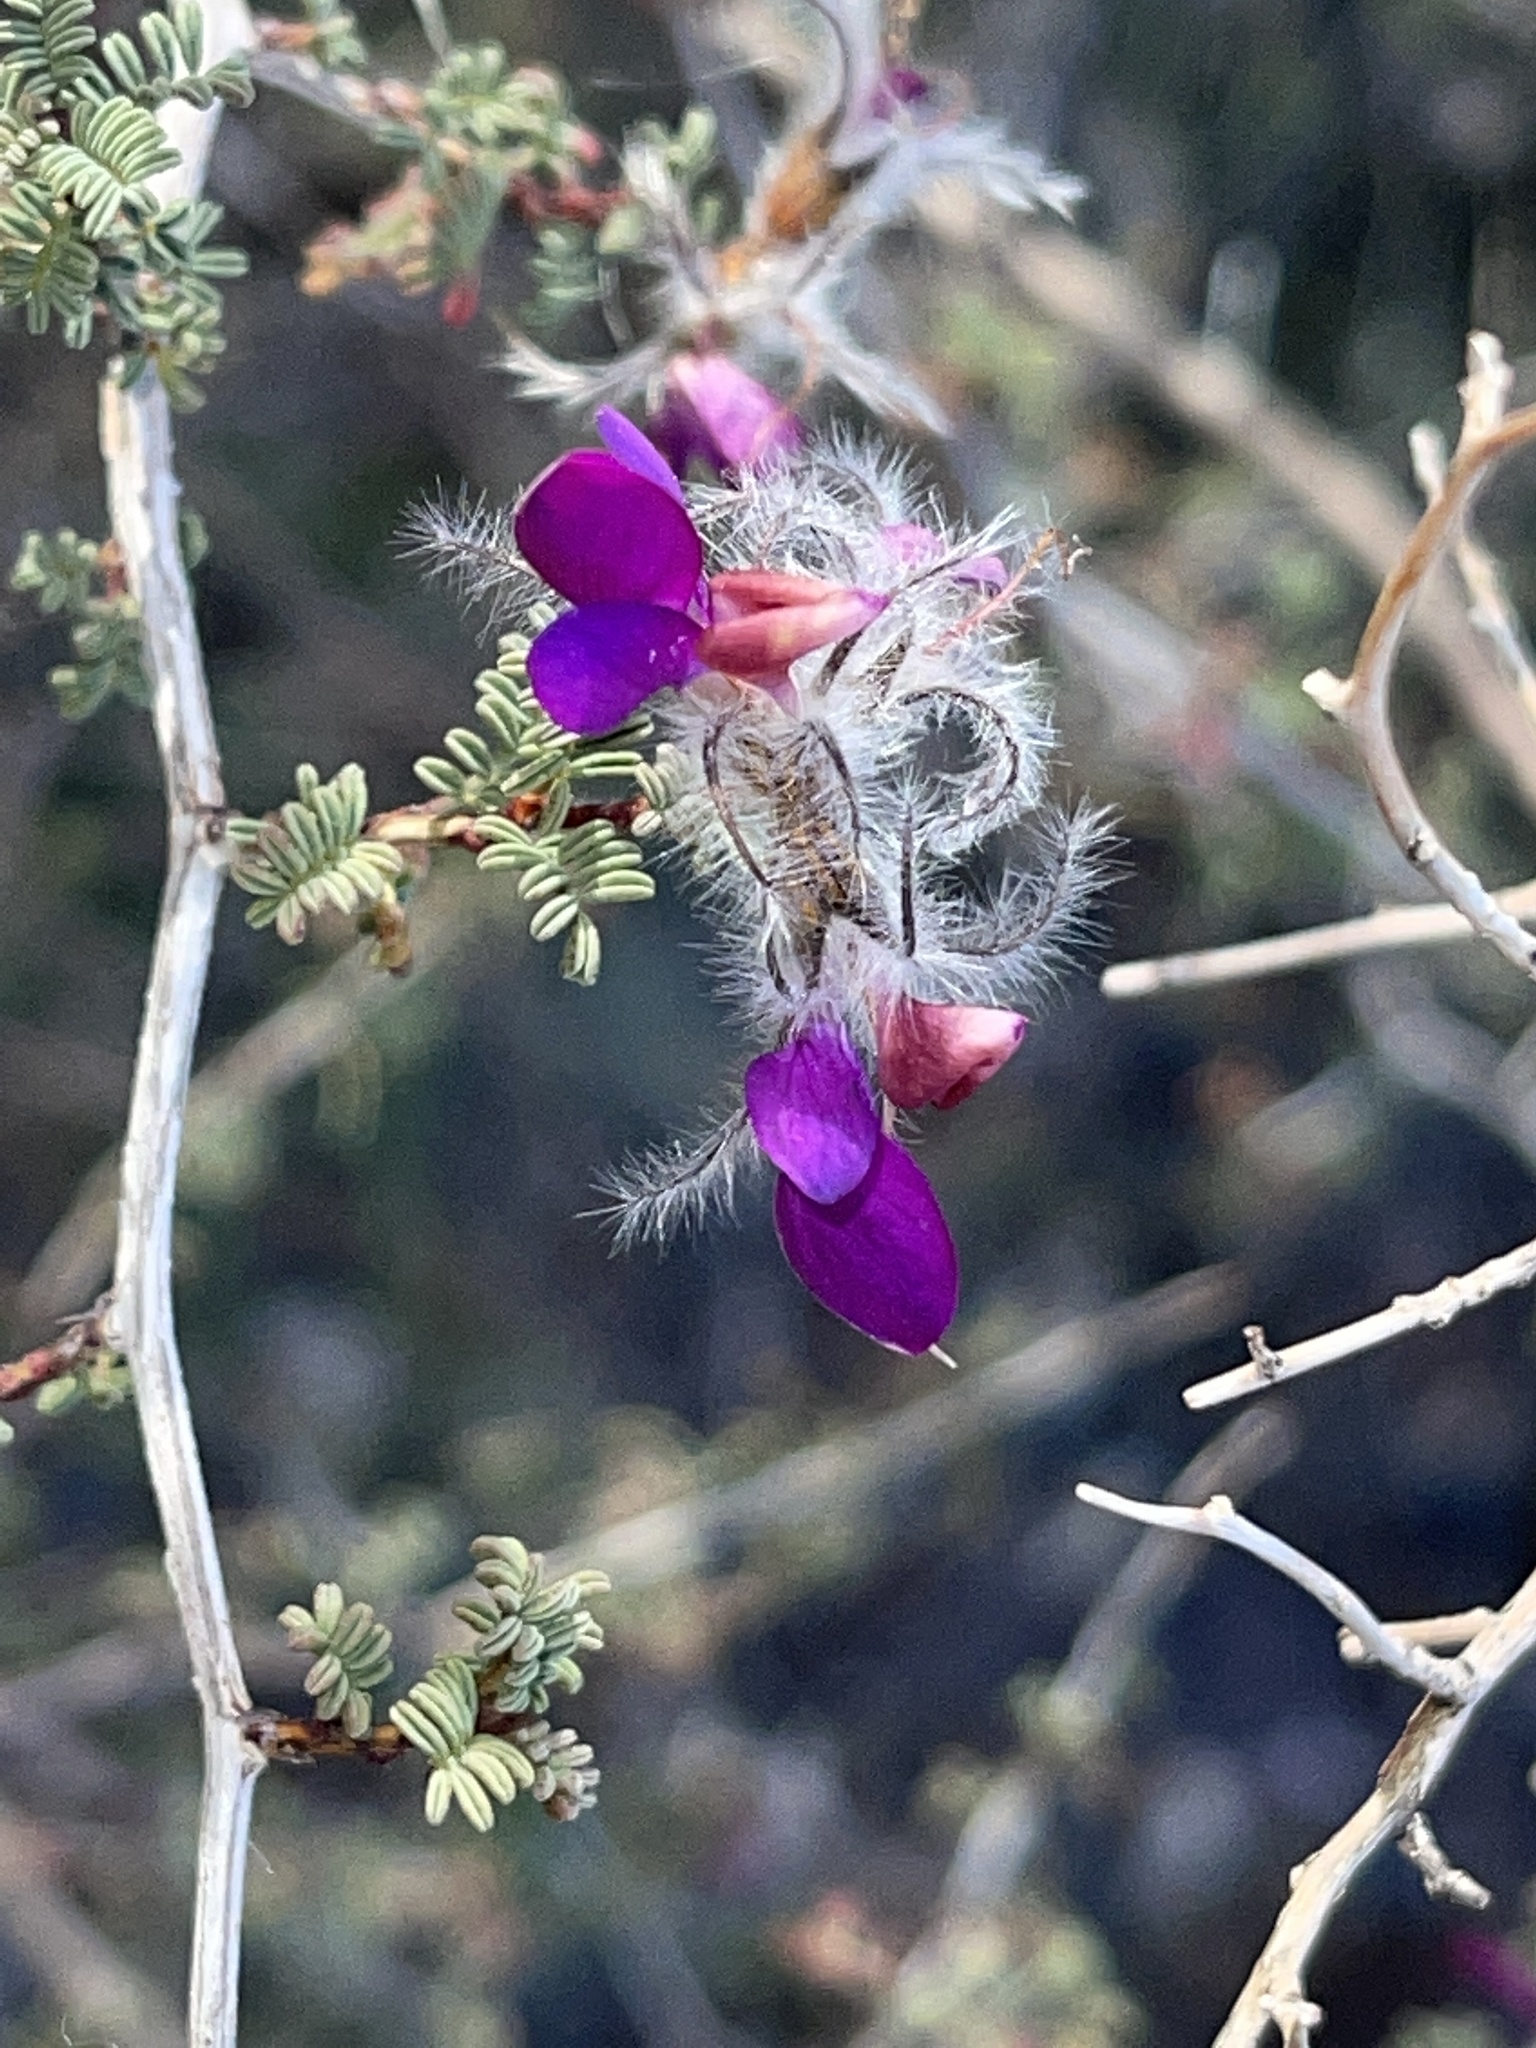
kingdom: Plantae
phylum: Tracheophyta
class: Magnoliopsida
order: Fabales
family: Fabaceae
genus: Dalea
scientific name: Dalea formosa
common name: Feather-plume dalea
